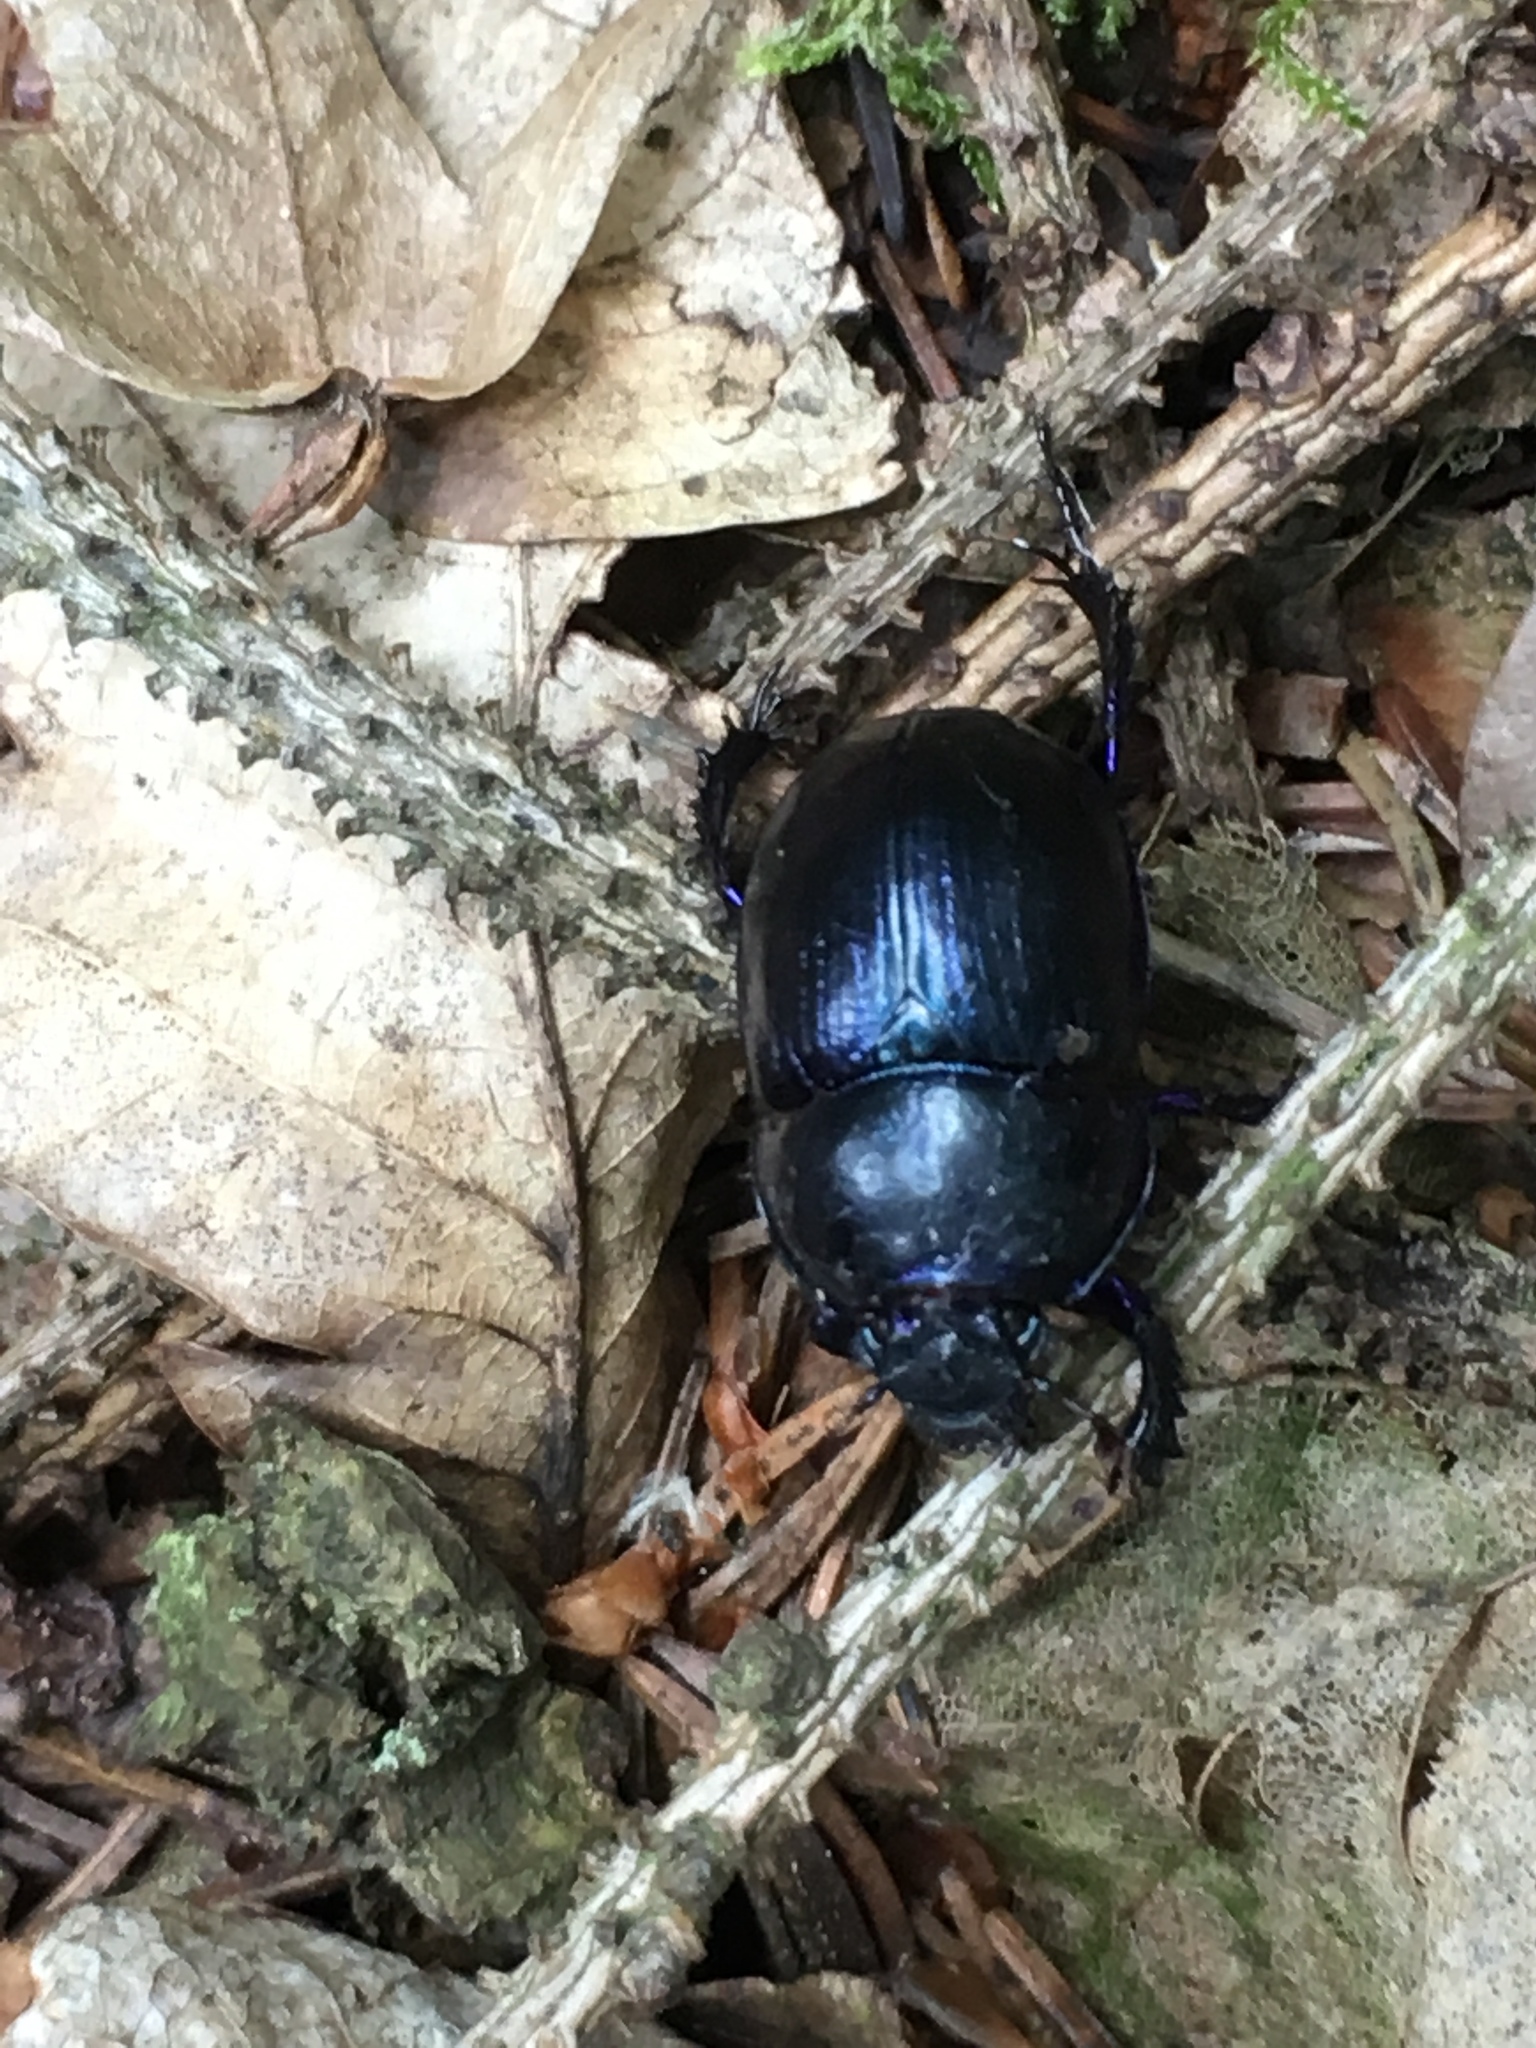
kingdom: Animalia
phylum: Arthropoda
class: Insecta
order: Coleoptera
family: Geotrupidae
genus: Anoplotrupes
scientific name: Anoplotrupes stercorosus
